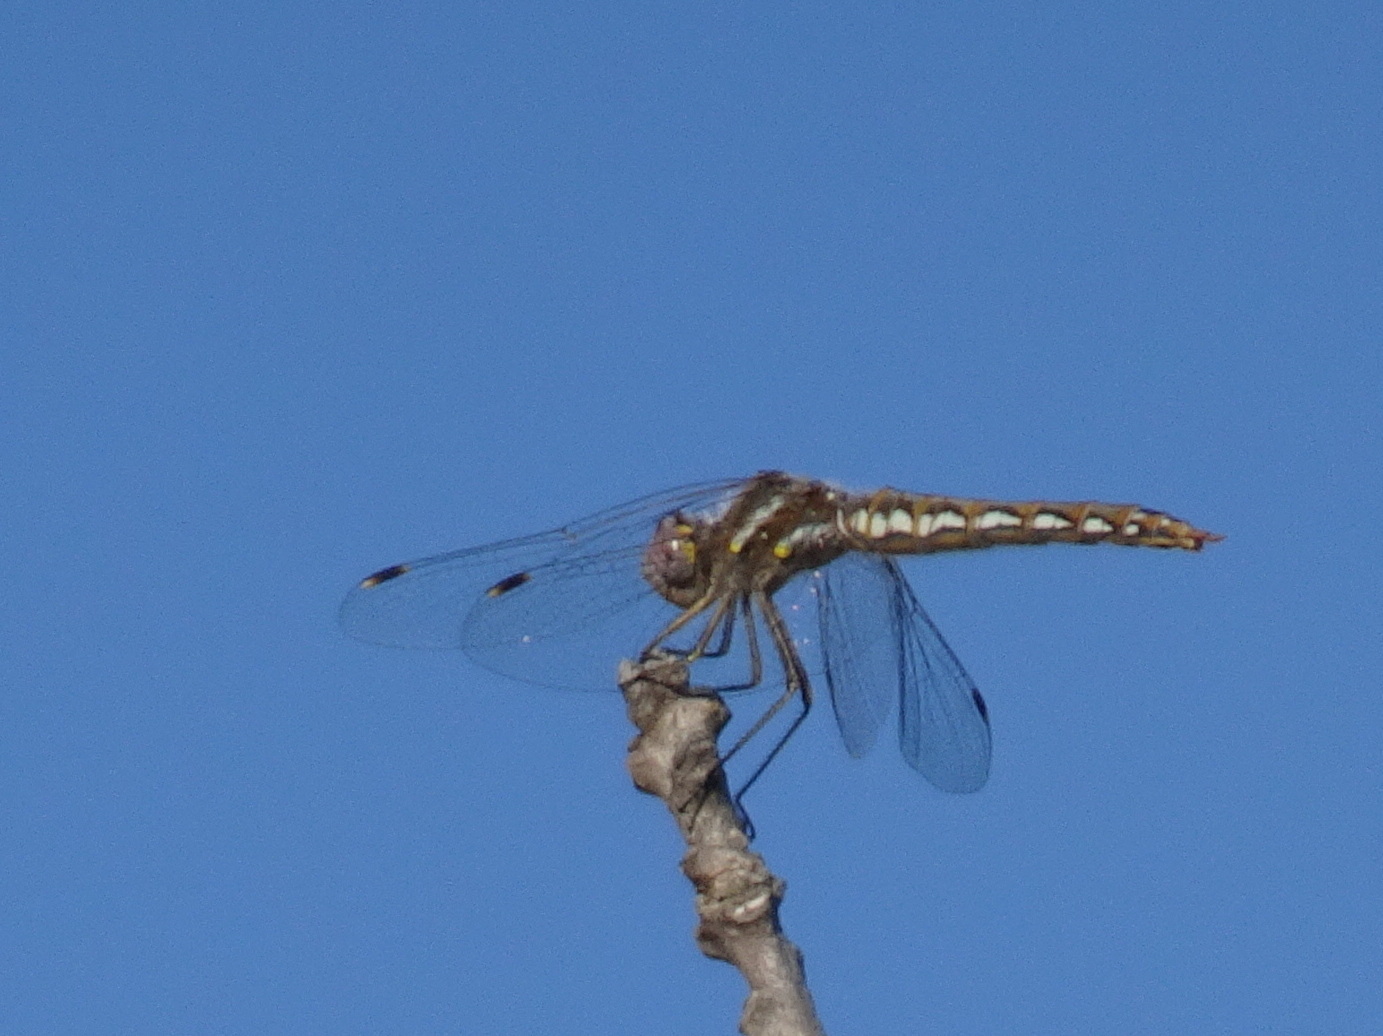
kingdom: Animalia
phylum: Arthropoda
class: Insecta
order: Odonata
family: Libellulidae
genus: Sympetrum
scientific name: Sympetrum corruptum
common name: Variegated meadowhawk
